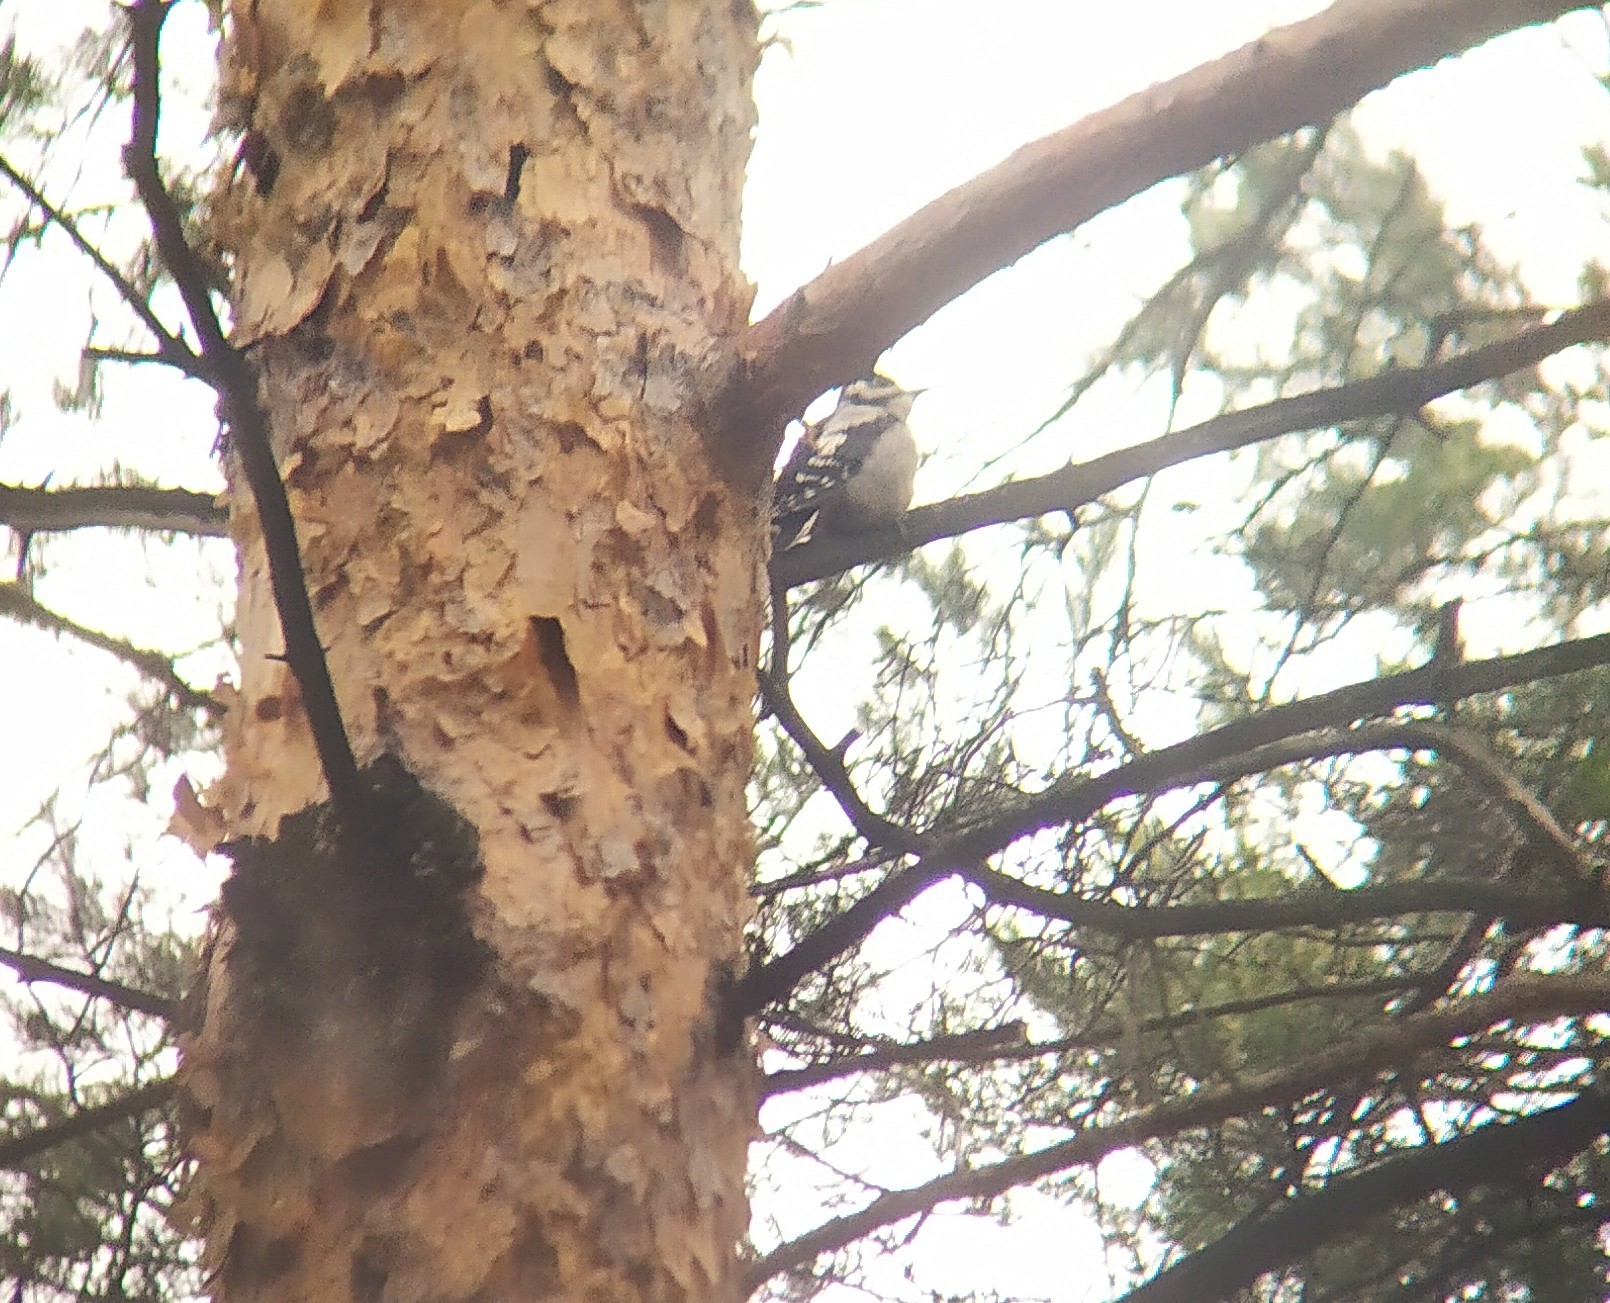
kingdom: Animalia
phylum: Chordata
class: Aves
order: Piciformes
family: Picidae
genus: Dendrocopos
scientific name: Dendrocopos major
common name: Great spotted woodpecker
